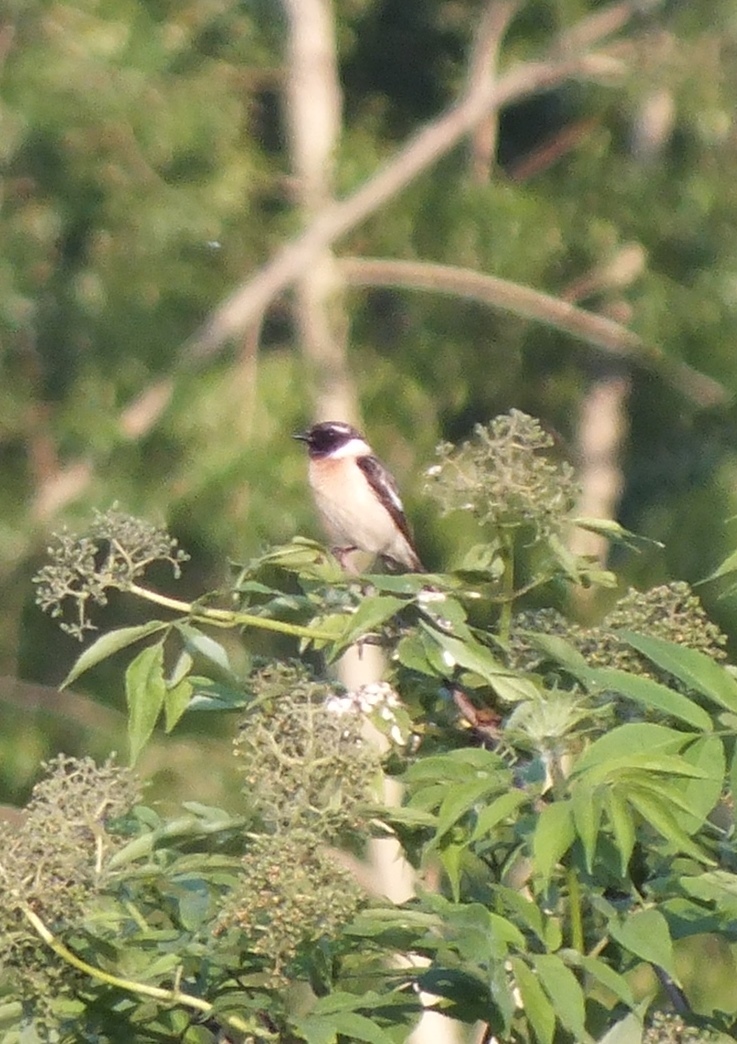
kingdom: Animalia
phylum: Chordata
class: Aves
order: Passeriformes
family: Muscicapidae
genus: Saxicola
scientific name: Saxicola maurus
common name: Siberian stonechat
